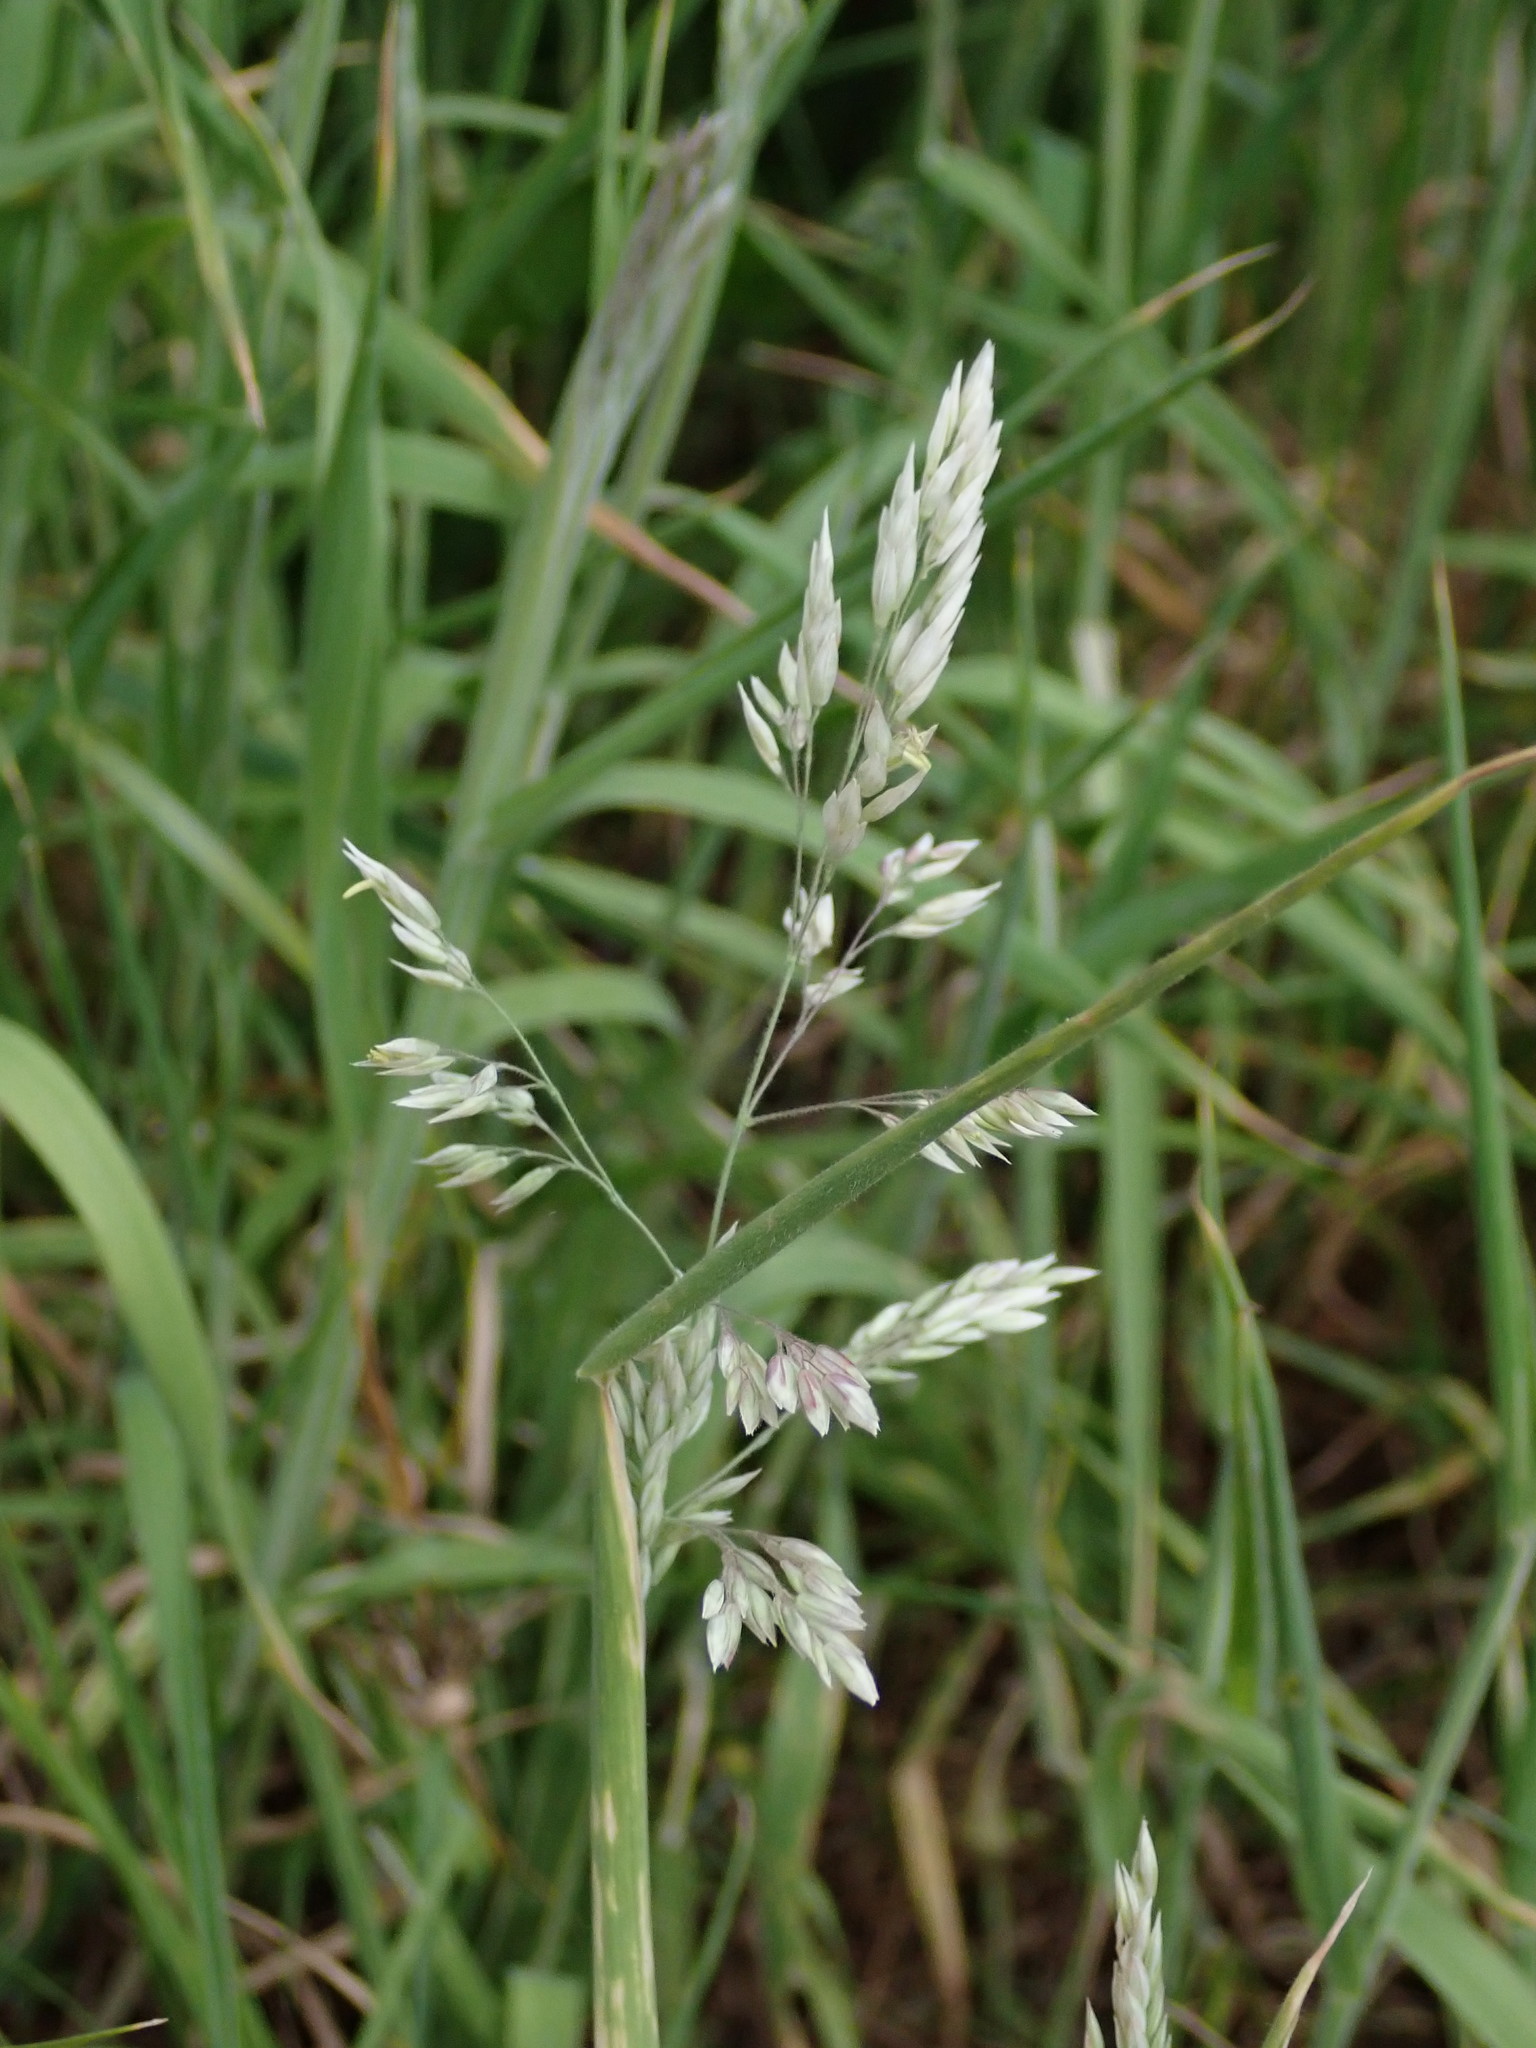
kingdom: Plantae
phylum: Tracheophyta
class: Liliopsida
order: Poales
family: Poaceae
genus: Holcus
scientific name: Holcus lanatus
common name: Yorkshire-fog
